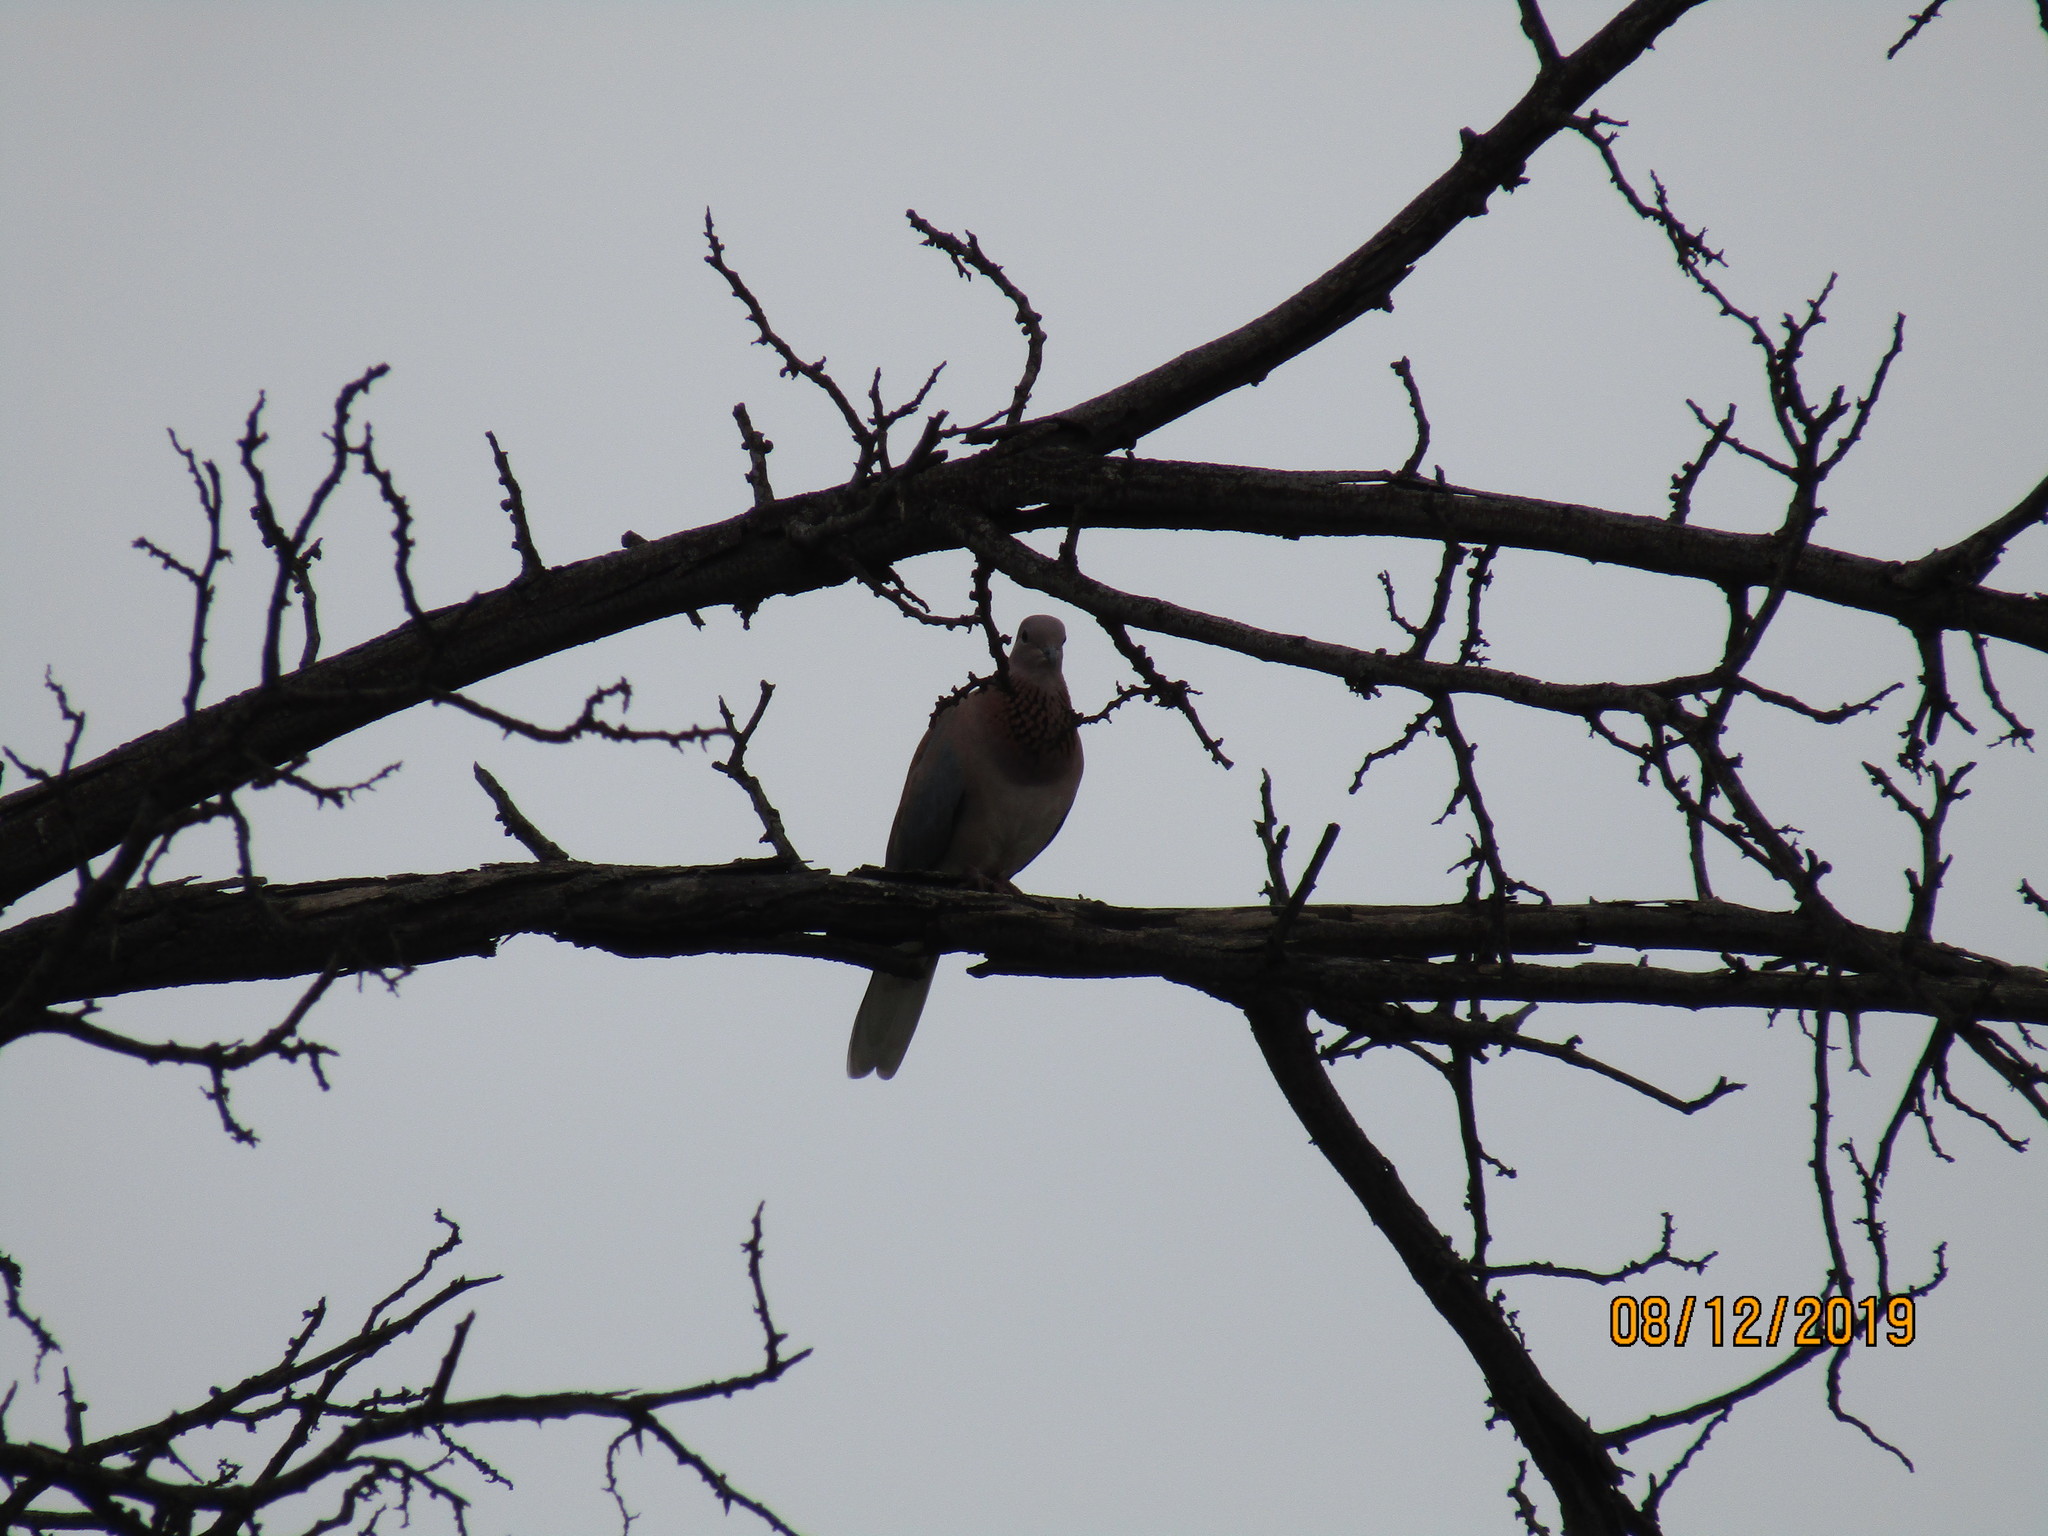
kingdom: Animalia
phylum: Chordata
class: Aves
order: Columbiformes
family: Columbidae
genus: Spilopelia
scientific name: Spilopelia senegalensis
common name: Laughing dove
